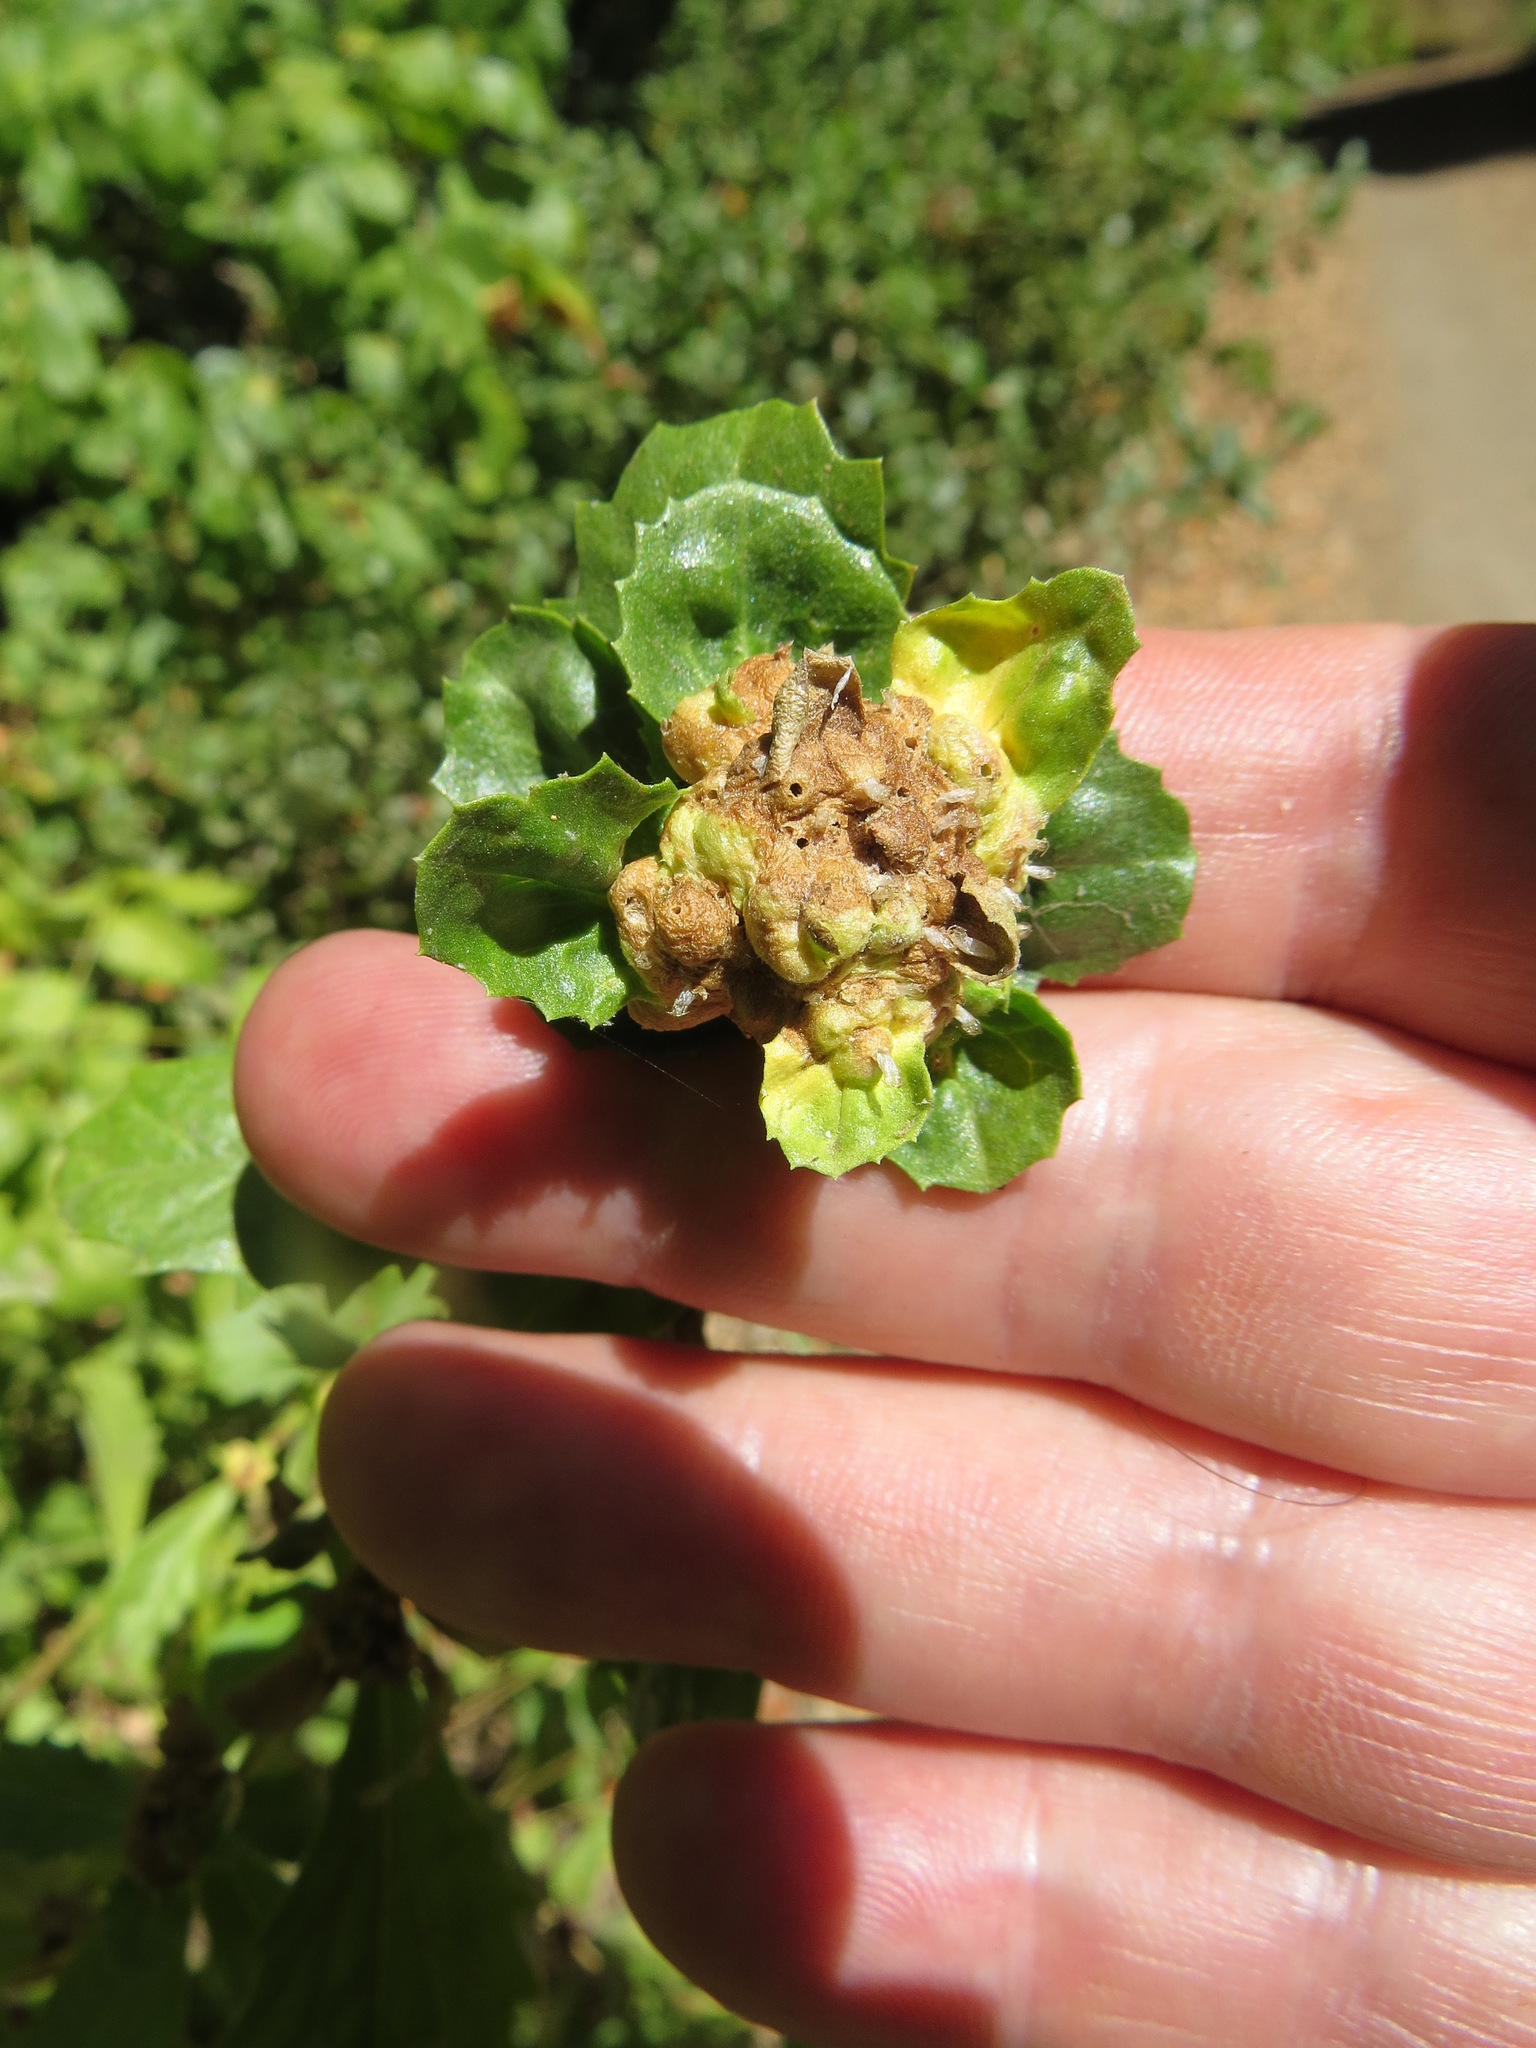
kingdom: Animalia
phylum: Arthropoda
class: Insecta
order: Diptera
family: Cecidomyiidae
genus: Rhopalomyia
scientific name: Rhopalomyia californica
